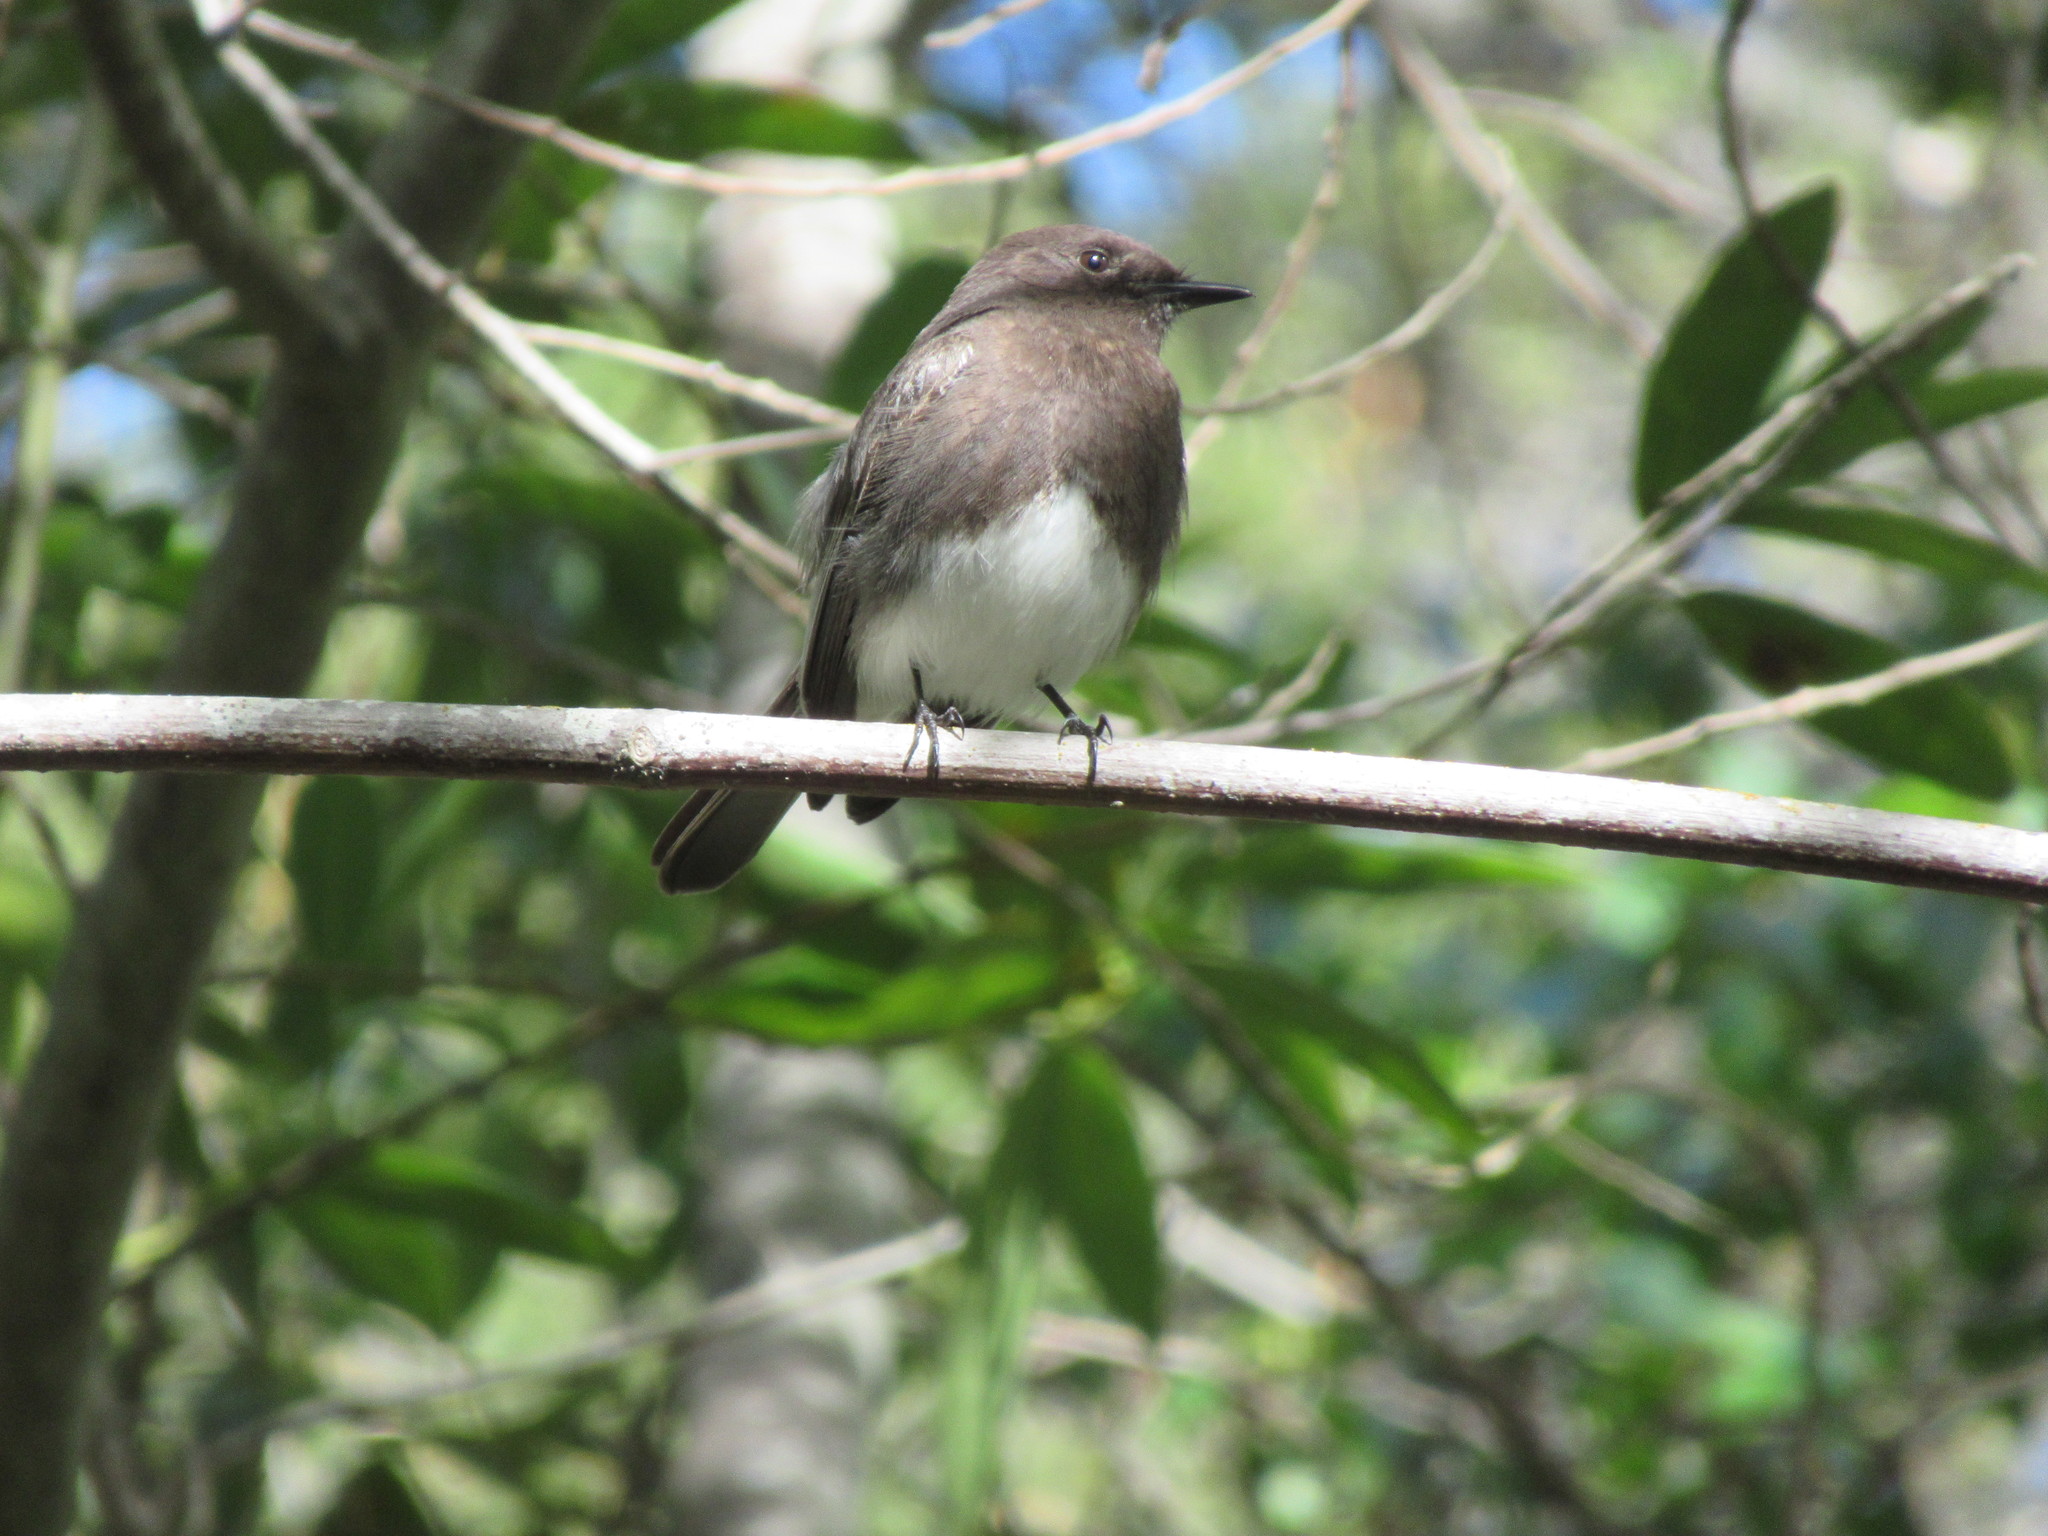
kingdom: Animalia
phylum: Chordata
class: Aves
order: Passeriformes
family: Tyrannidae
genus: Sayornis
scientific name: Sayornis nigricans
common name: Black phoebe
